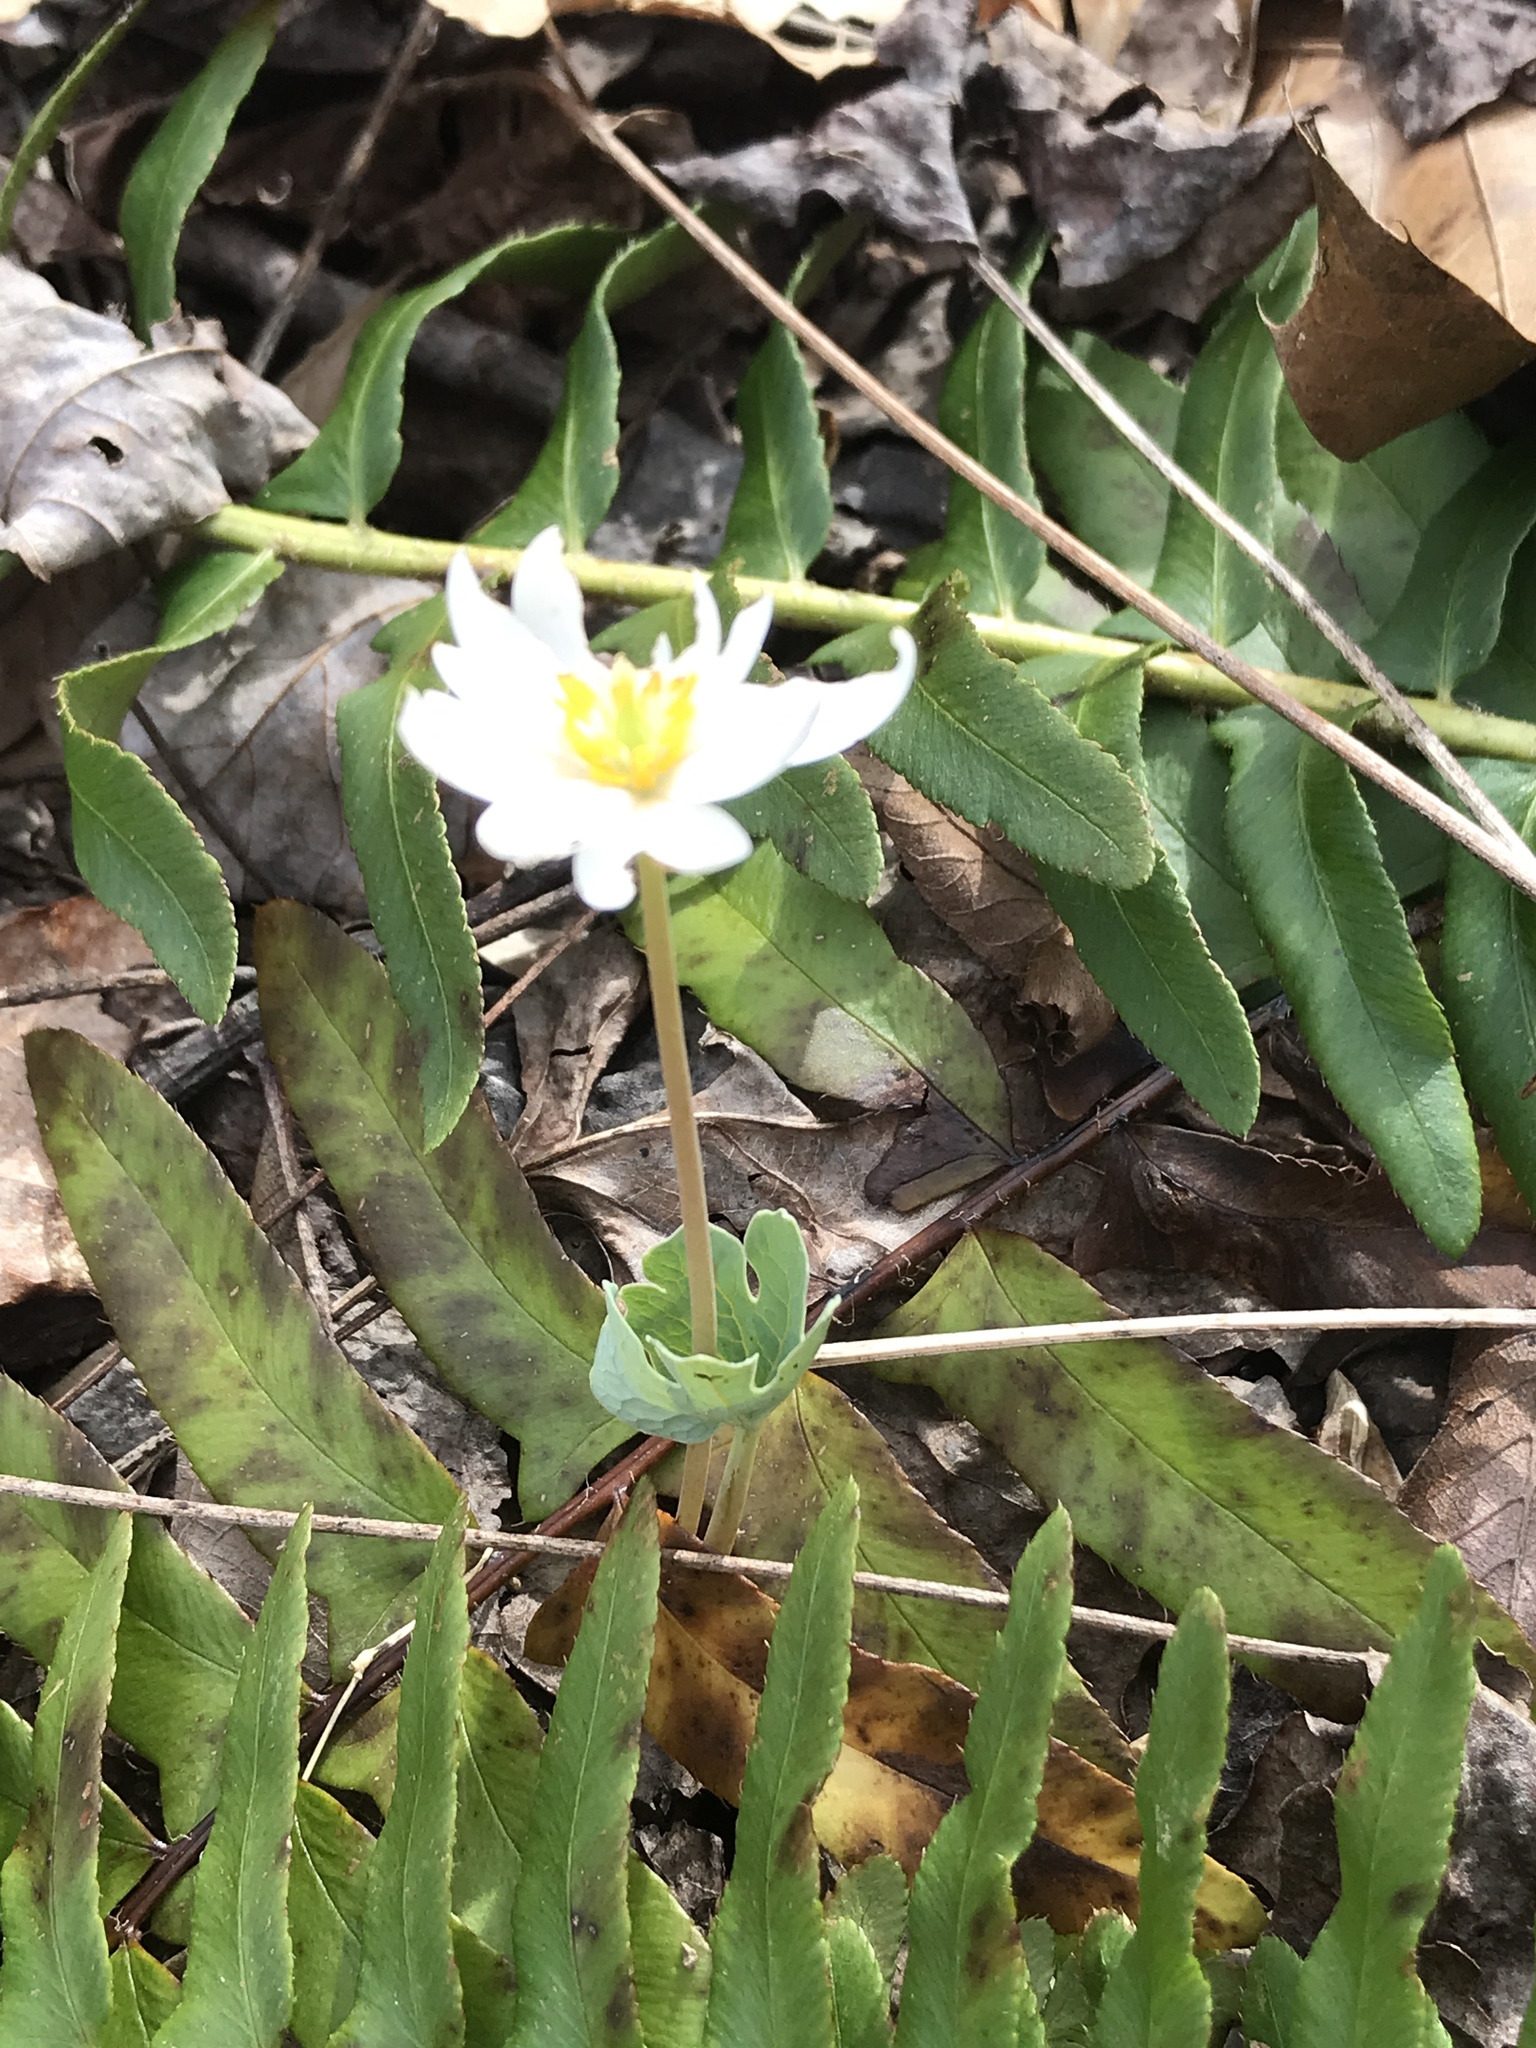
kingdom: Plantae
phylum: Tracheophyta
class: Magnoliopsida
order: Ranunculales
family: Papaveraceae
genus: Sanguinaria
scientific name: Sanguinaria canadensis
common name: Bloodroot
